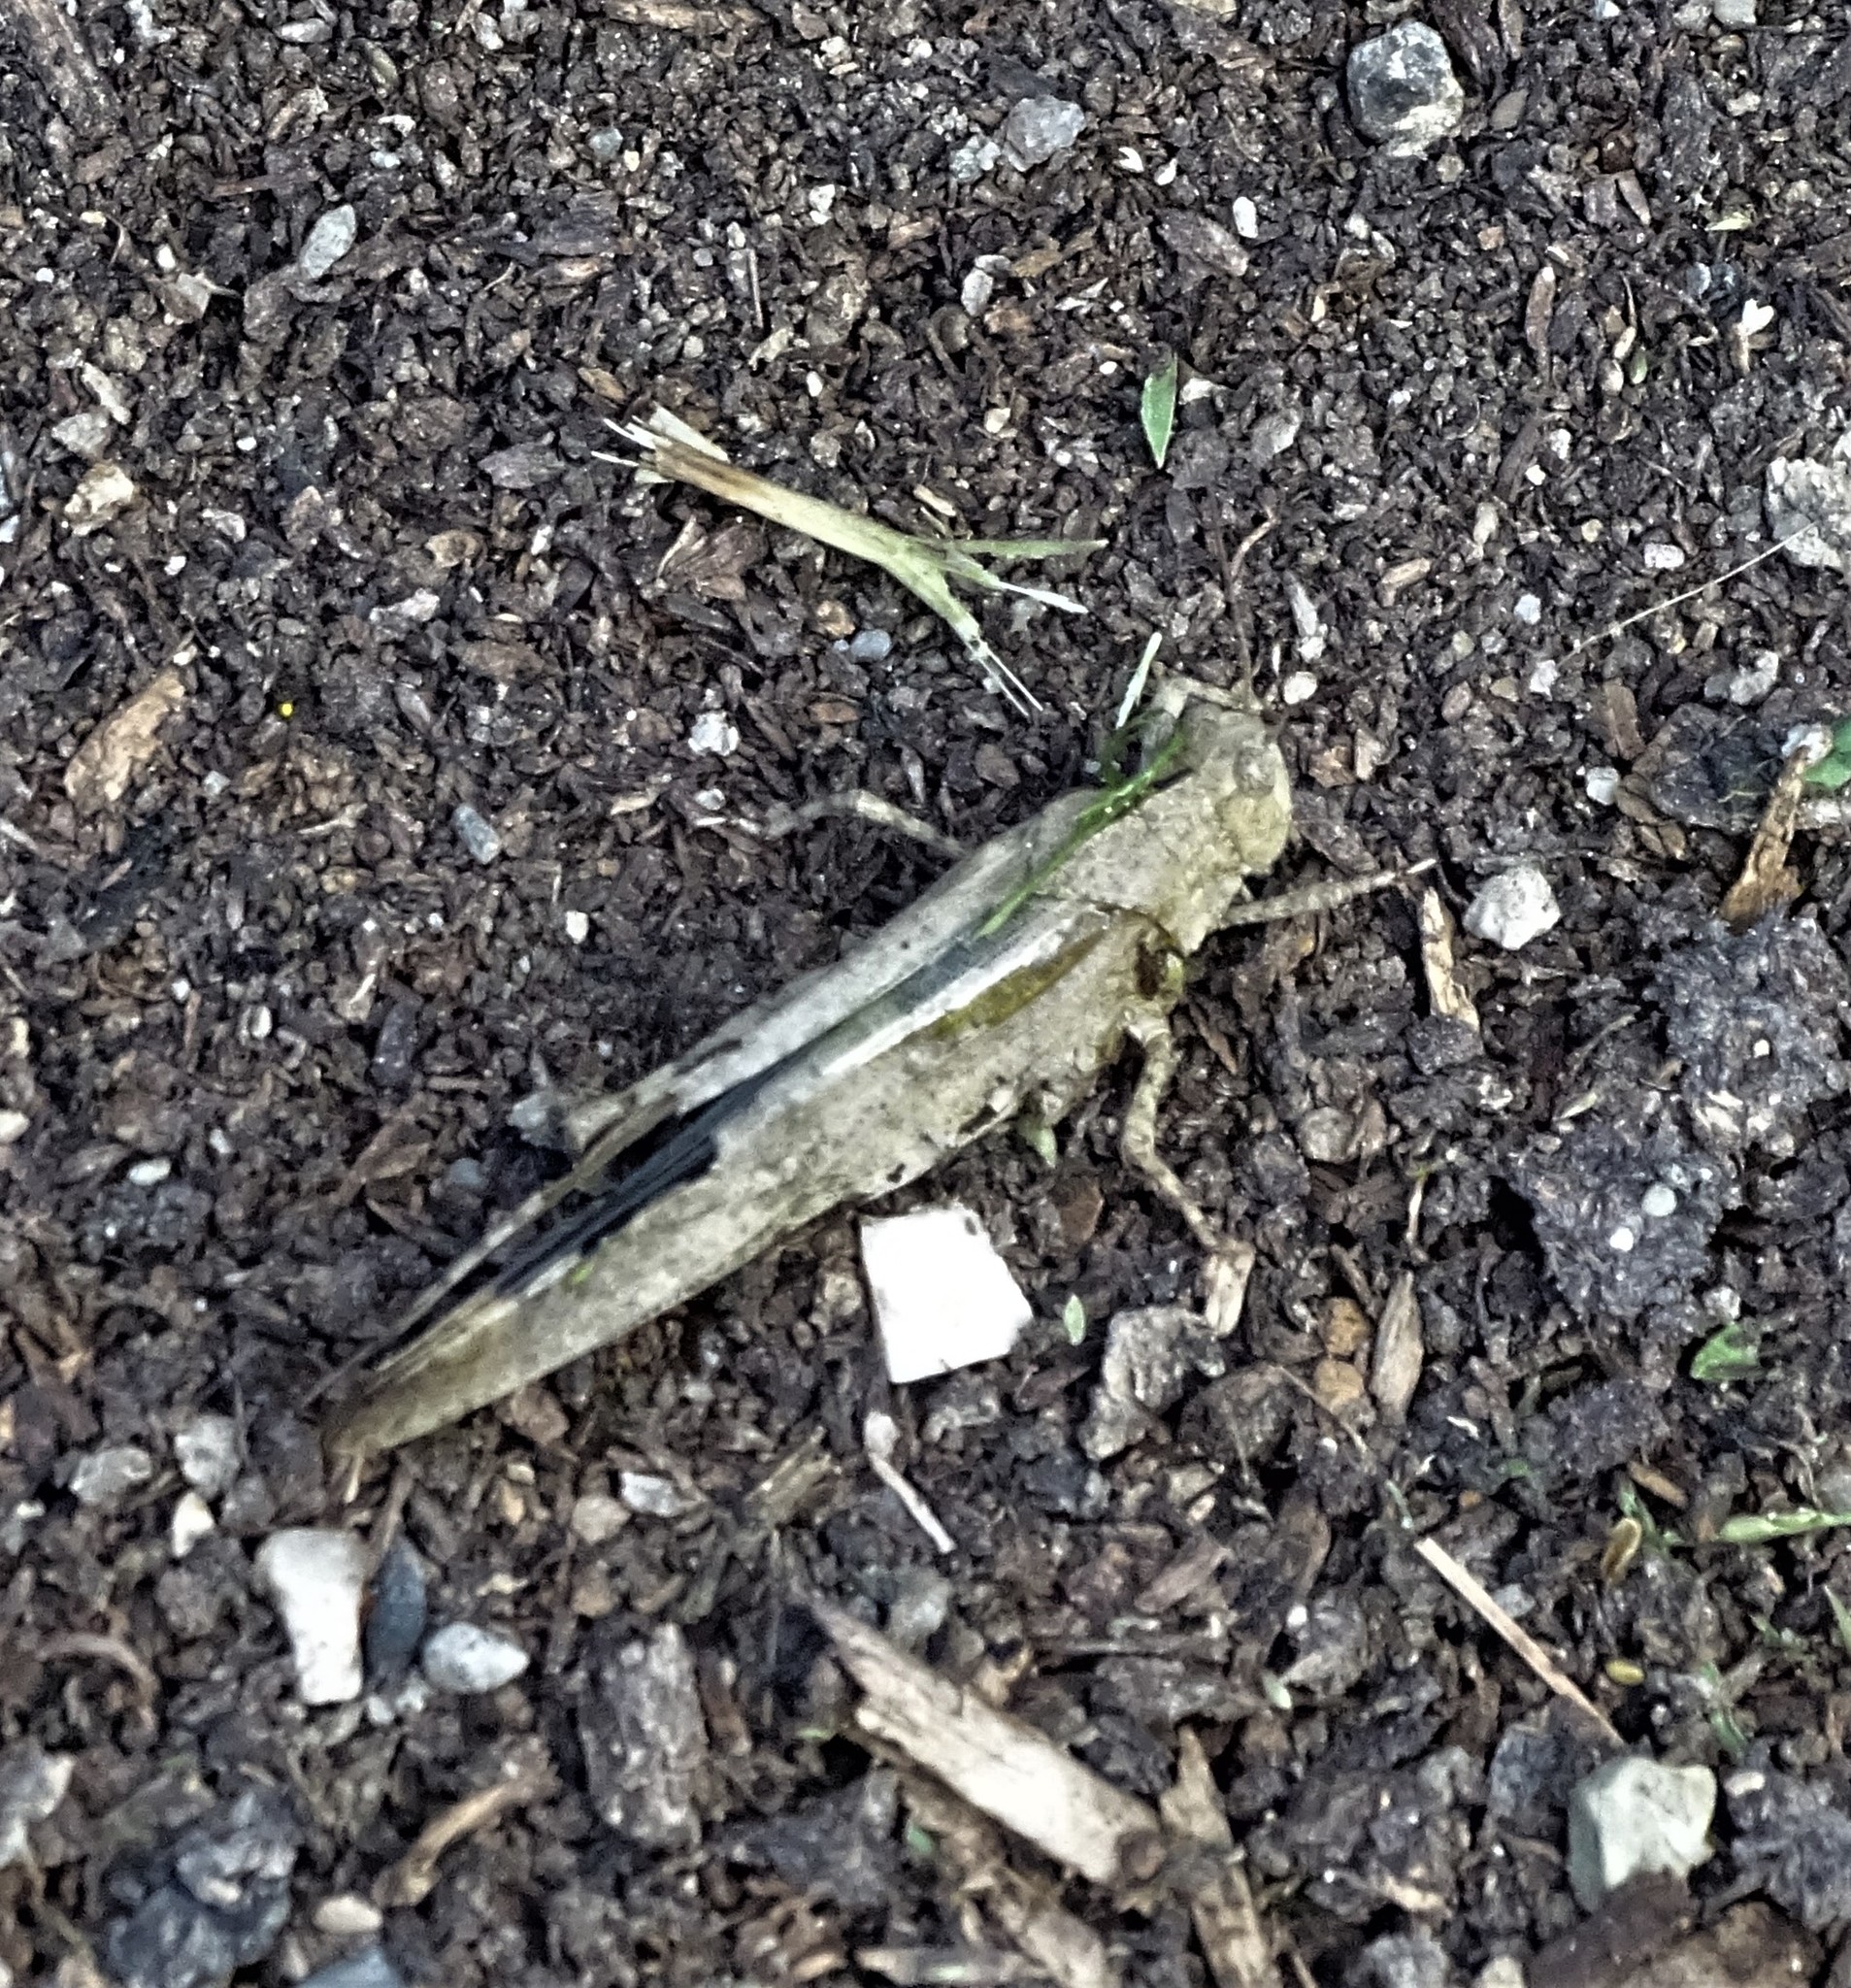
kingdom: Animalia
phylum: Arthropoda
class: Insecta
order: Orthoptera
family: Acrididae
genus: Dissosteira
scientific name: Dissosteira carolina
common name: Carolina grasshopper
